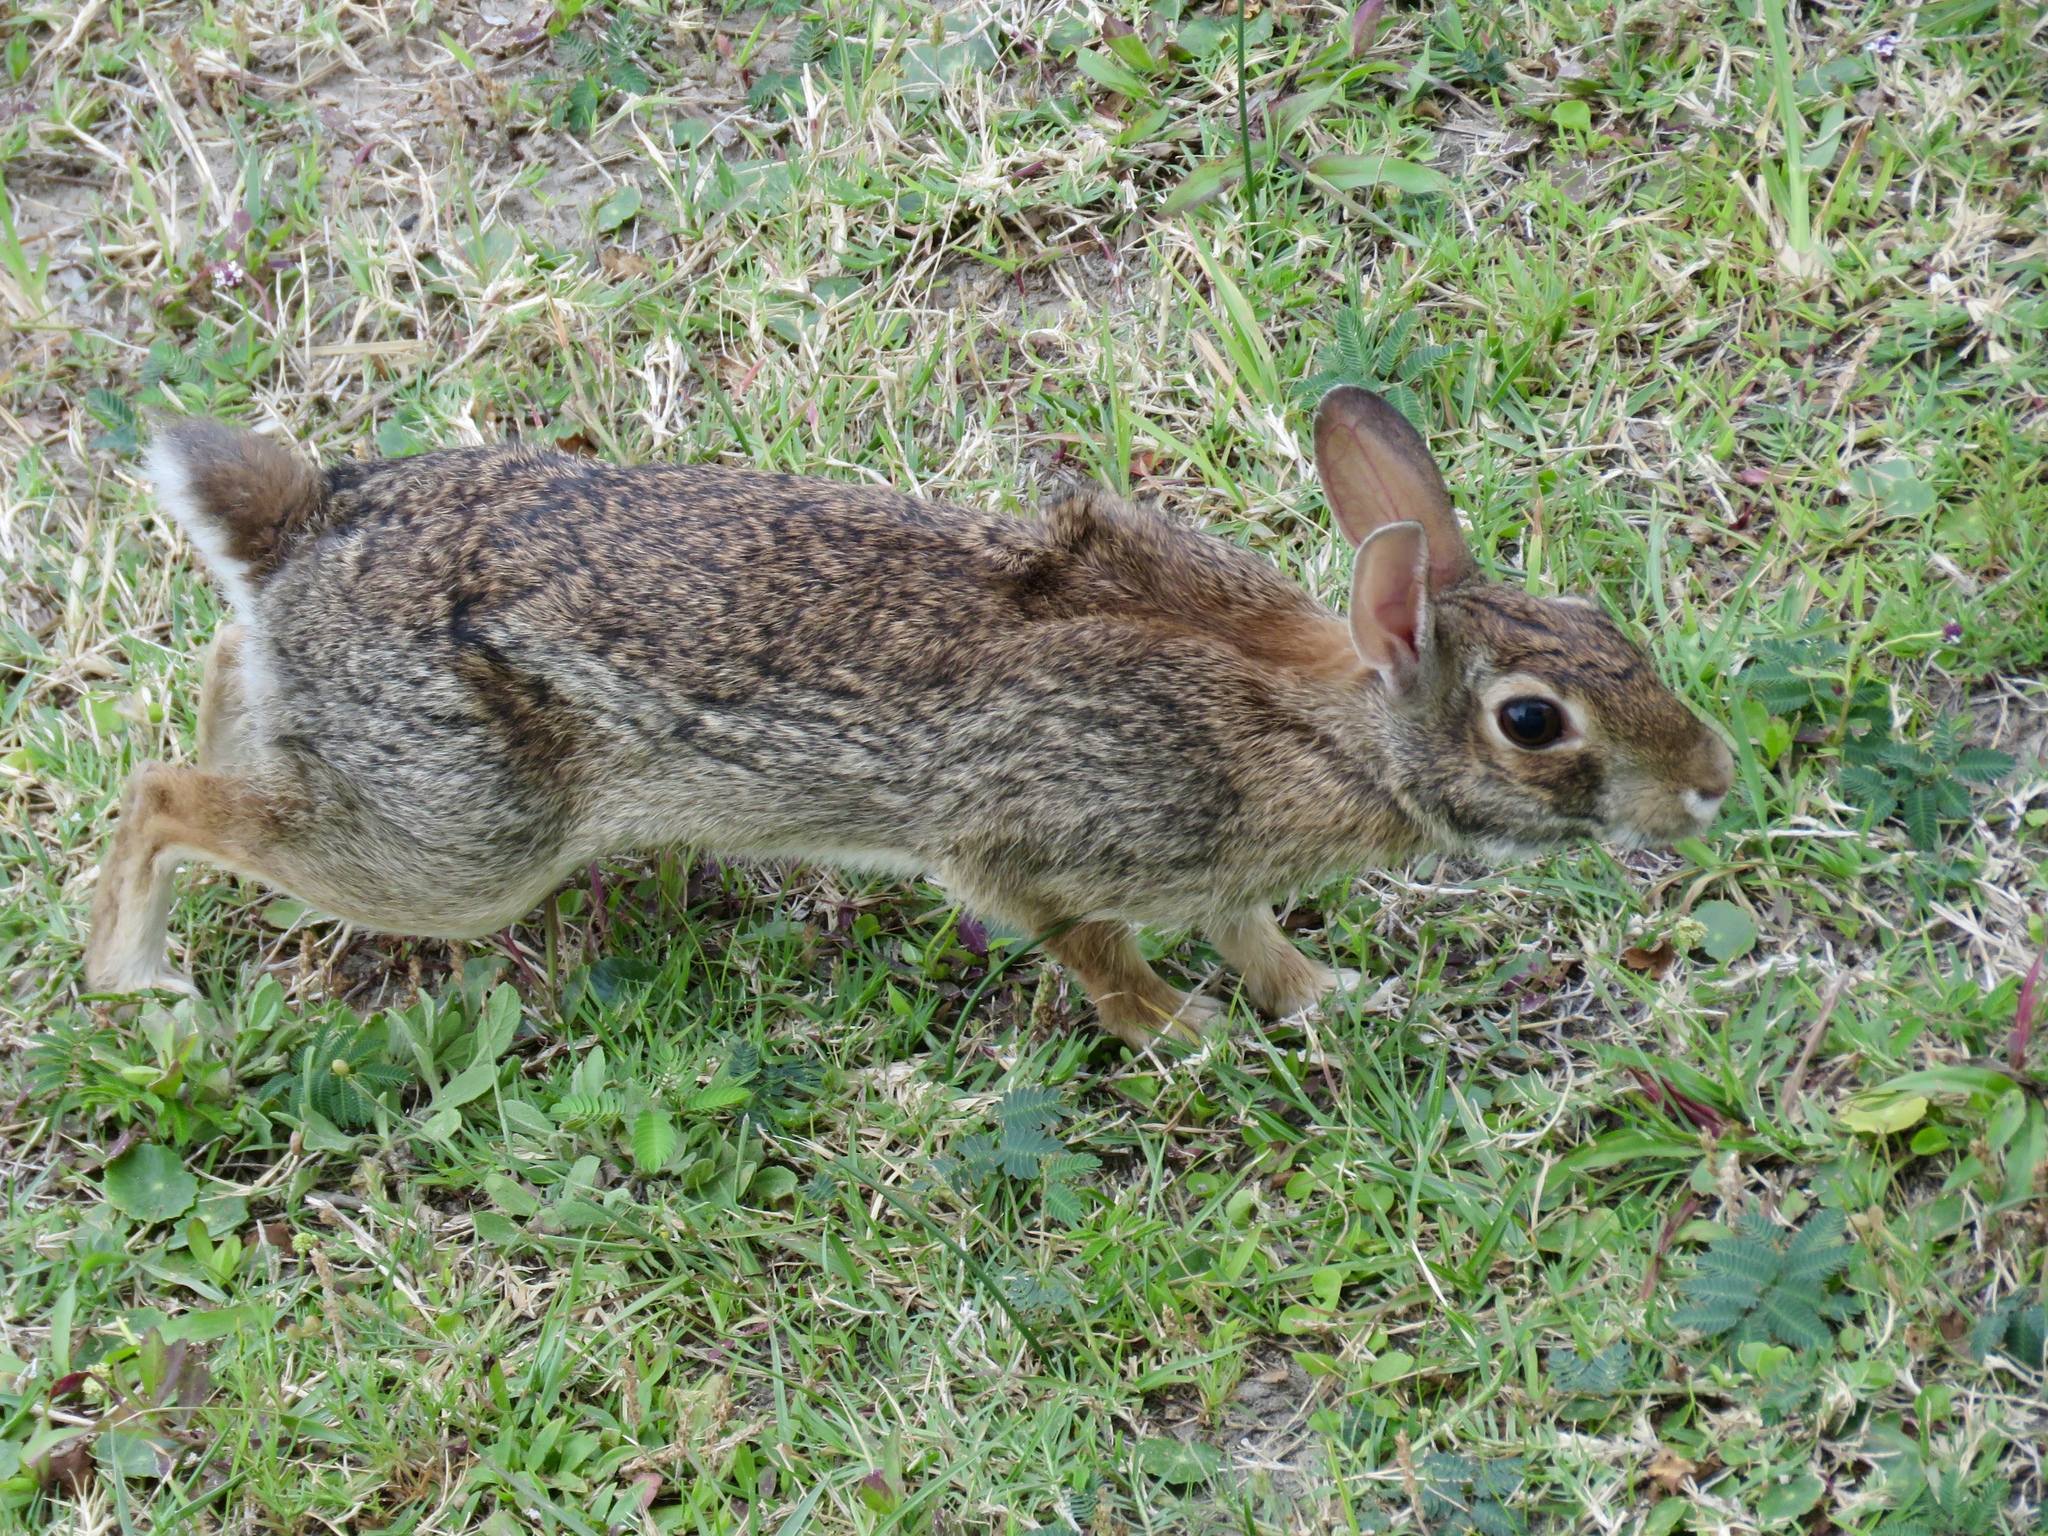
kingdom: Animalia
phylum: Chordata
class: Mammalia
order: Lagomorpha
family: Leporidae
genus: Sylvilagus
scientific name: Sylvilagus floridanus
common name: Eastern cottontail
